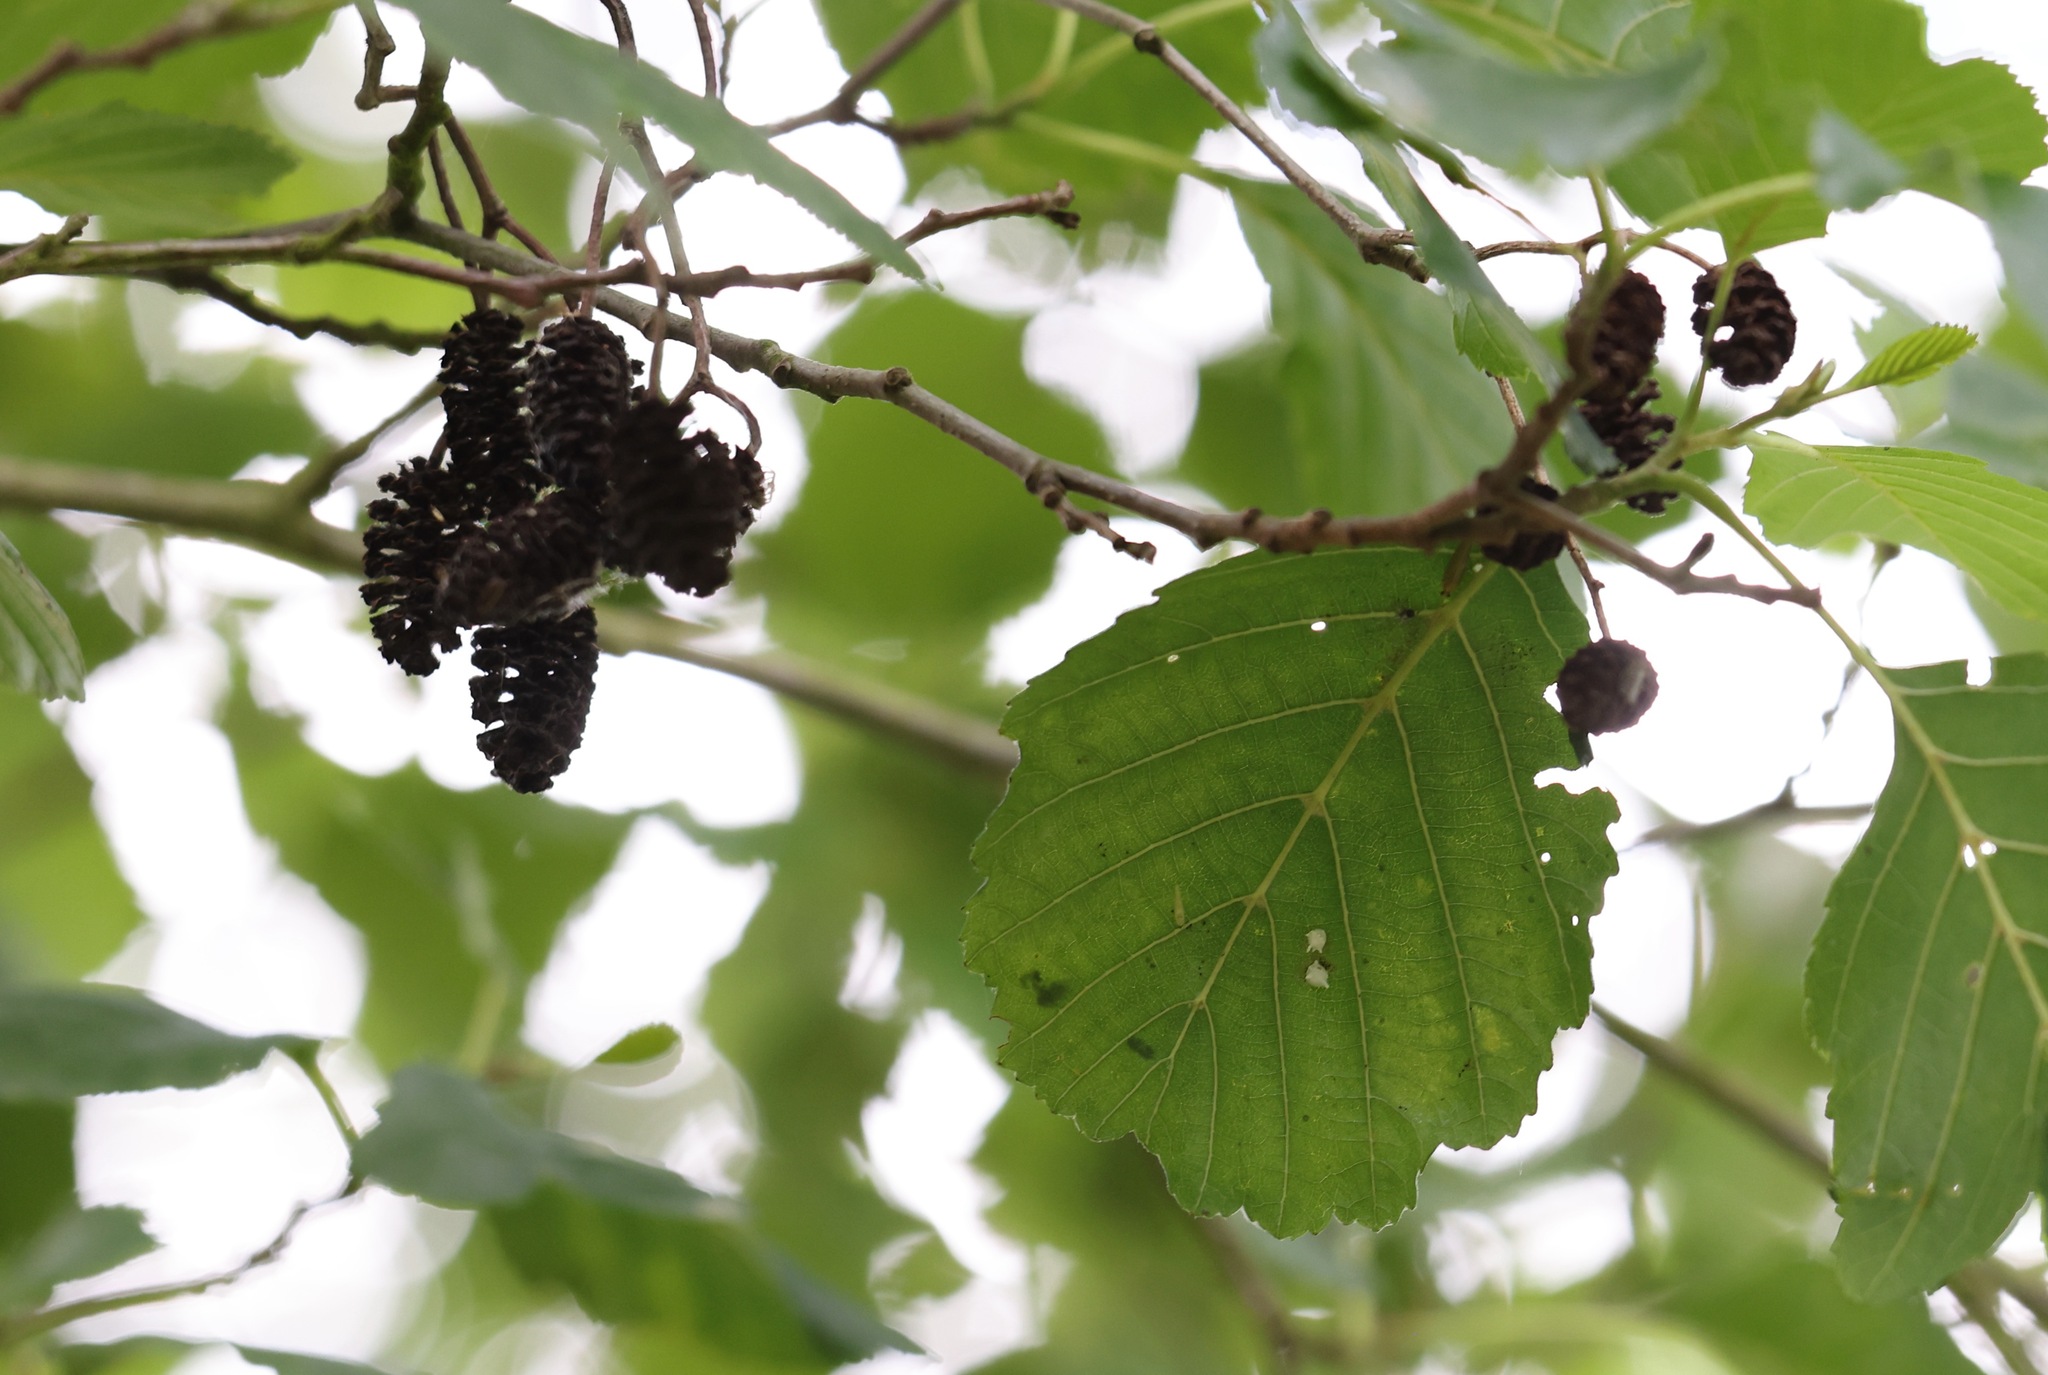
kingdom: Plantae
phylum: Tracheophyta
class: Magnoliopsida
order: Fagales
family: Betulaceae
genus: Alnus
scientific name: Alnus glutinosa
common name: Black alder
